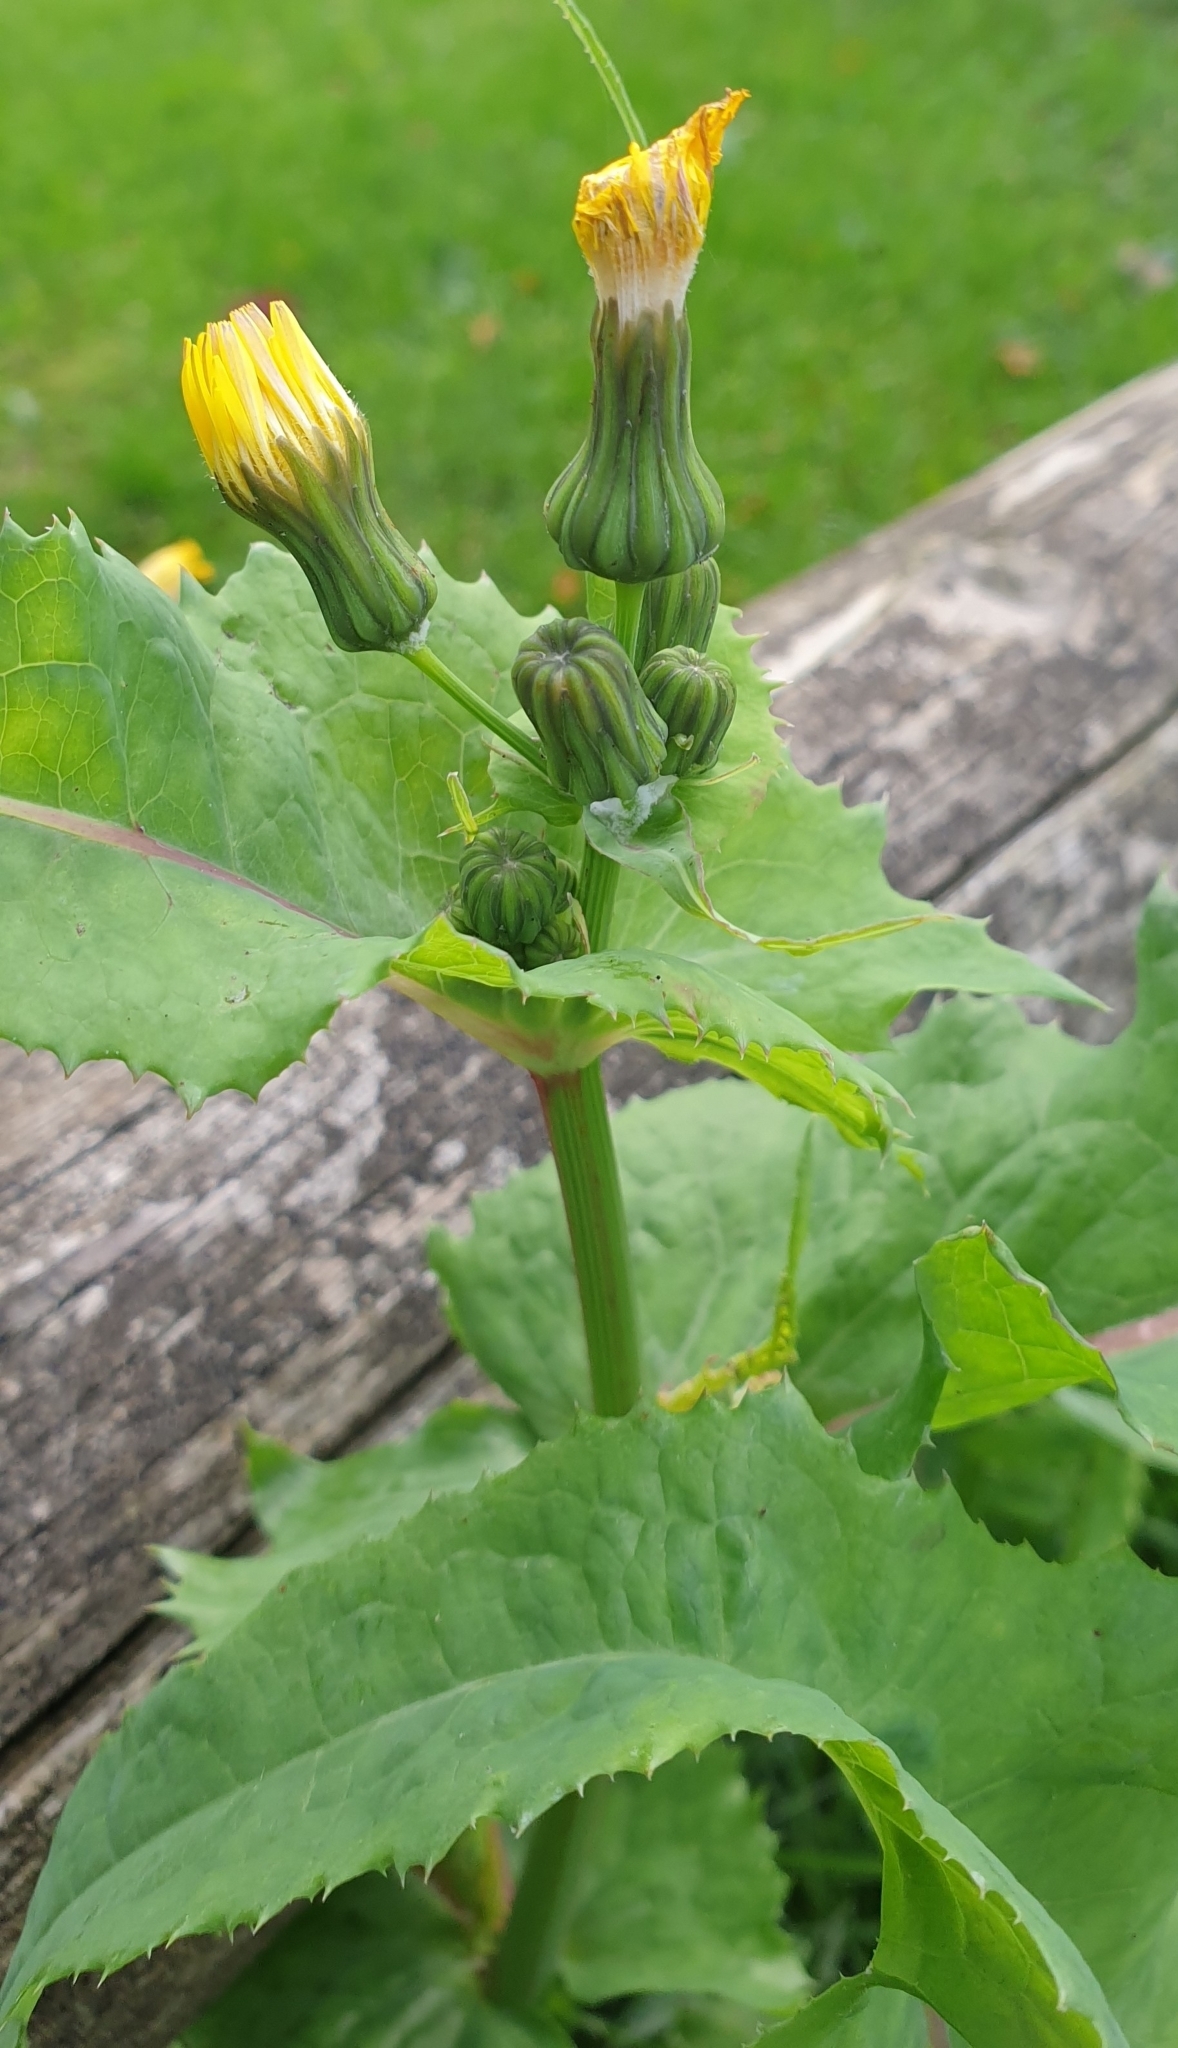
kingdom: Plantae
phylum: Tracheophyta
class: Magnoliopsida
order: Asterales
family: Asteraceae
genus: Sonchus
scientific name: Sonchus oleraceus
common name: Common sowthistle
